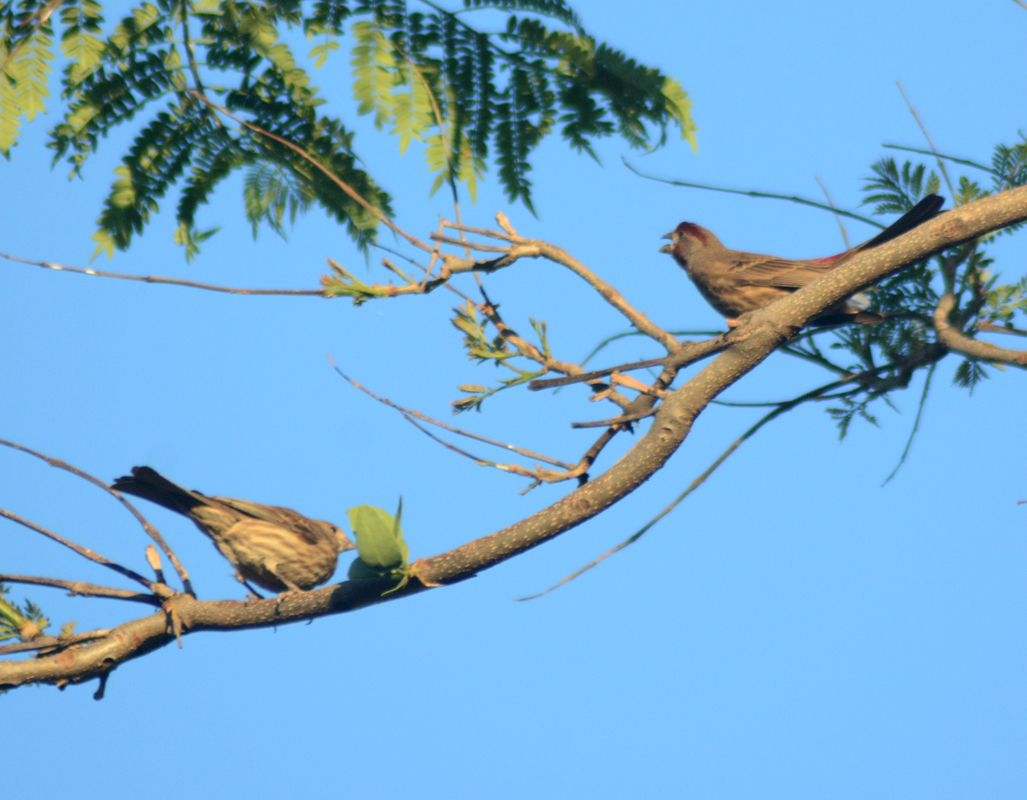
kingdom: Animalia
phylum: Chordata
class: Aves
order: Passeriformes
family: Fringillidae
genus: Haemorhous
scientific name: Haemorhous mexicanus
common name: House finch
